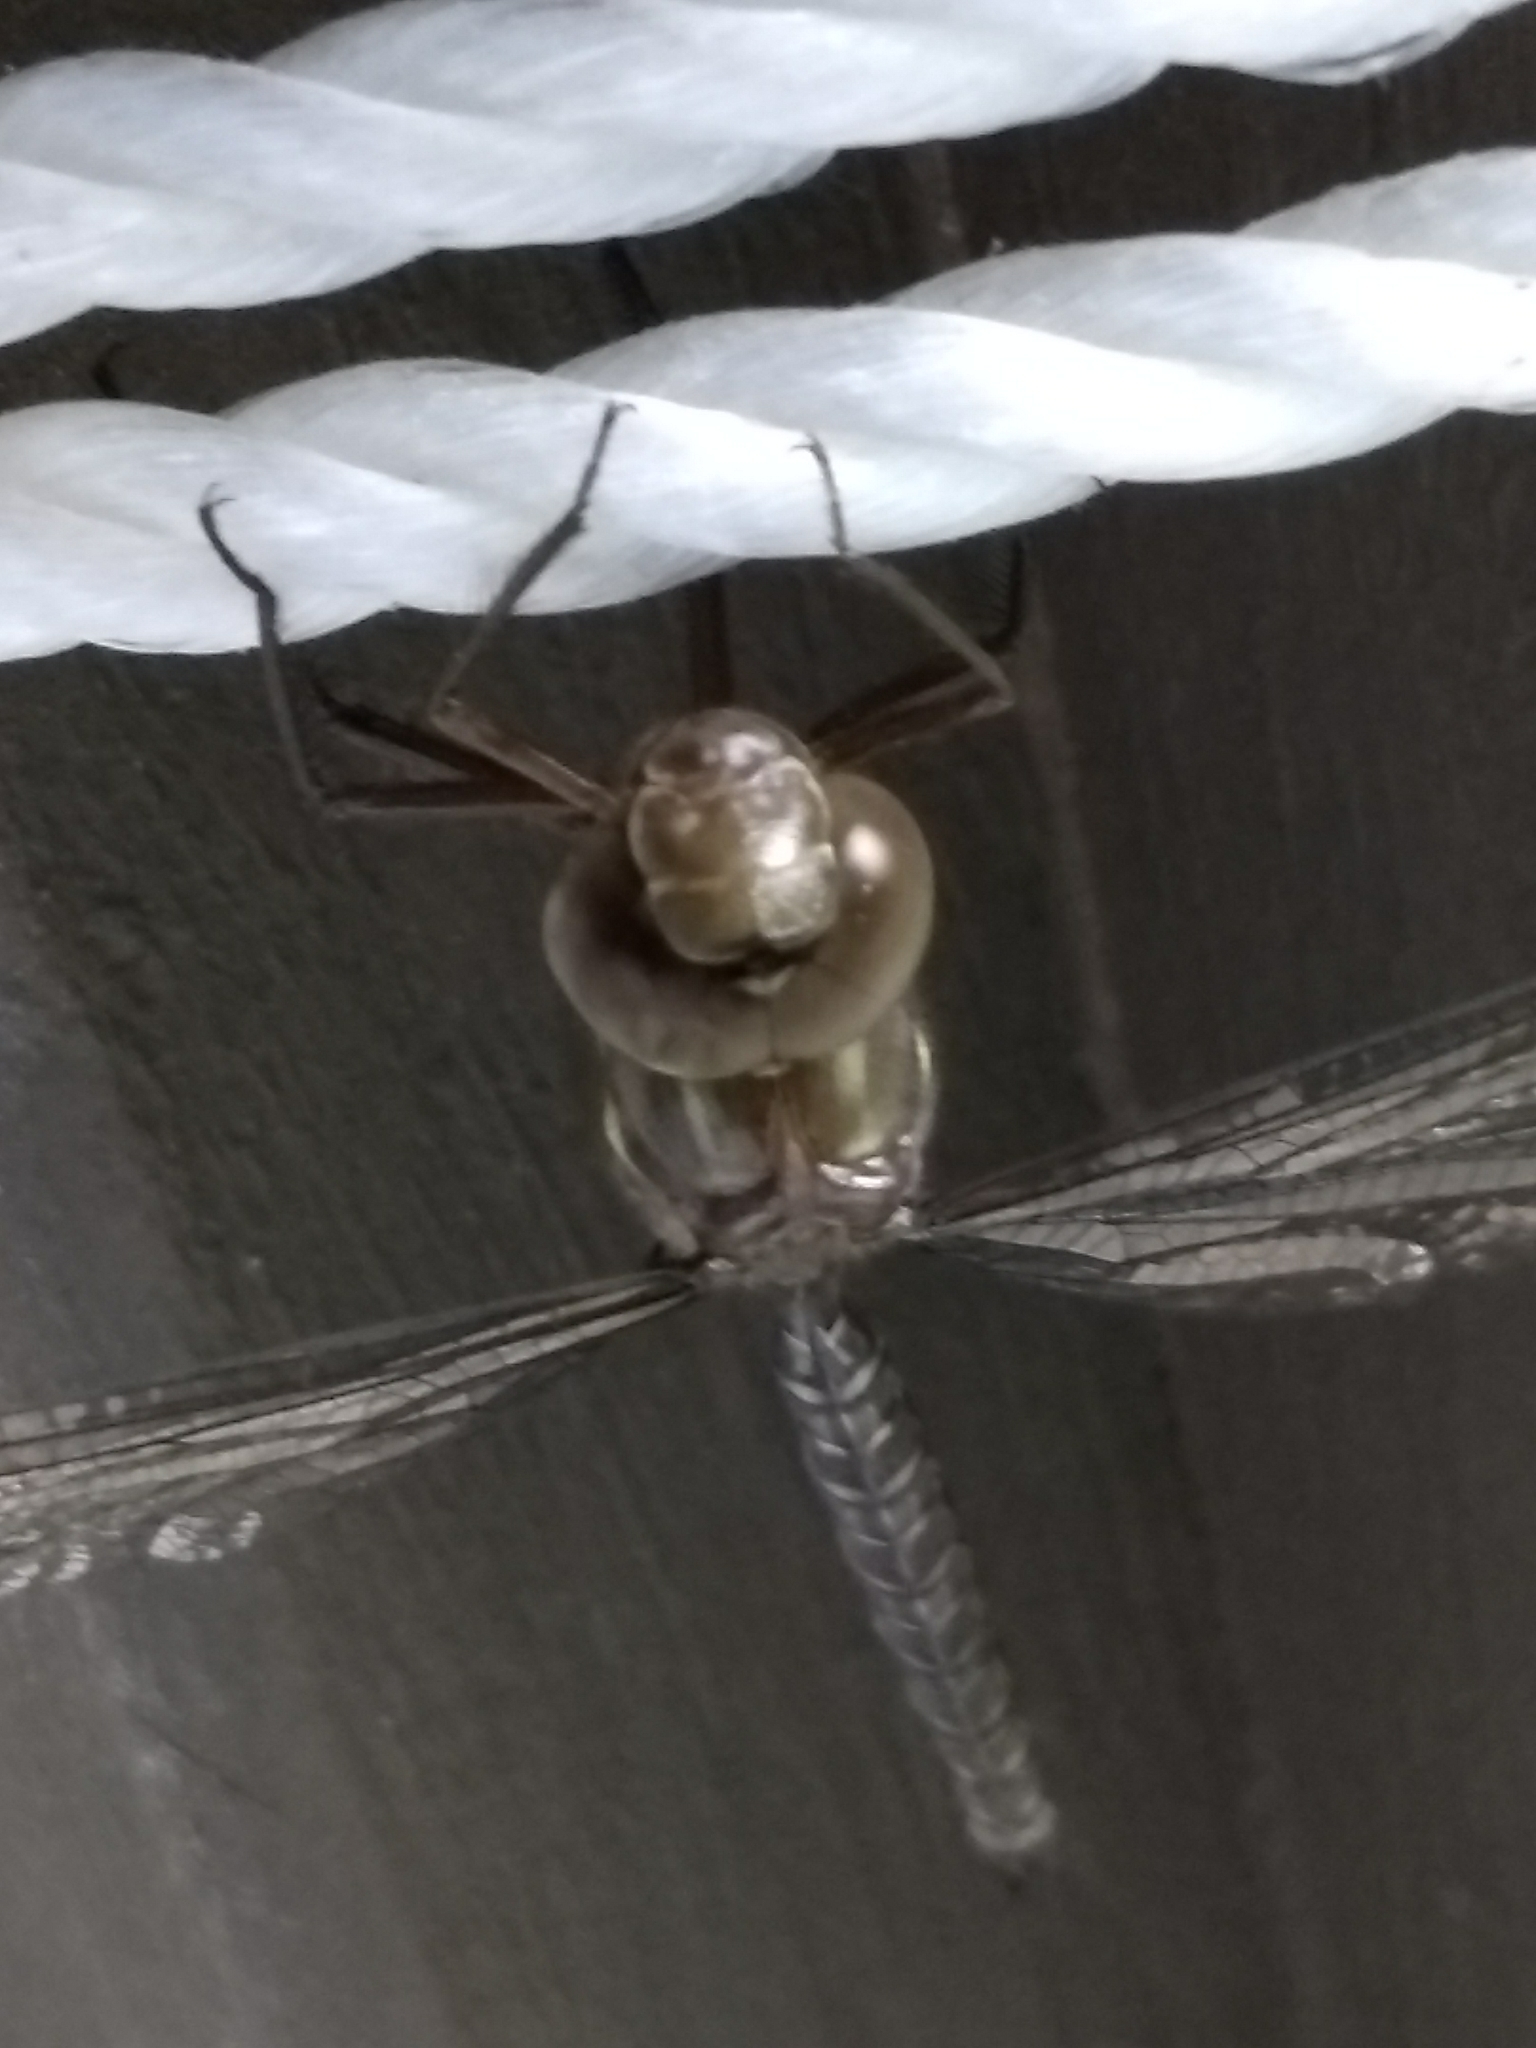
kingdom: Animalia
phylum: Arthropoda
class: Insecta
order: Odonata
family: Aeshnidae
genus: Aeshna
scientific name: Aeshna umbrosa
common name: Shadow darner
